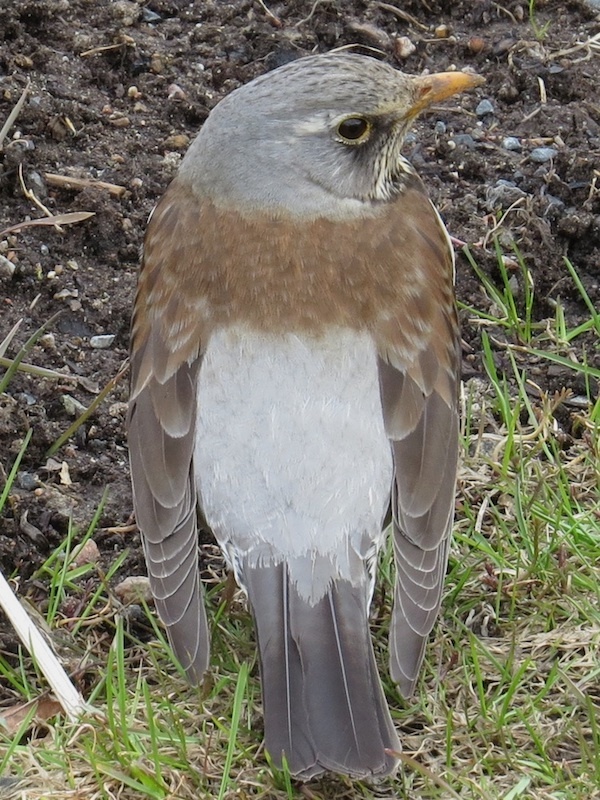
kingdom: Animalia
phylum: Chordata
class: Aves
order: Passeriformes
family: Turdidae
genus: Turdus
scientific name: Turdus pilaris
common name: Fieldfare
